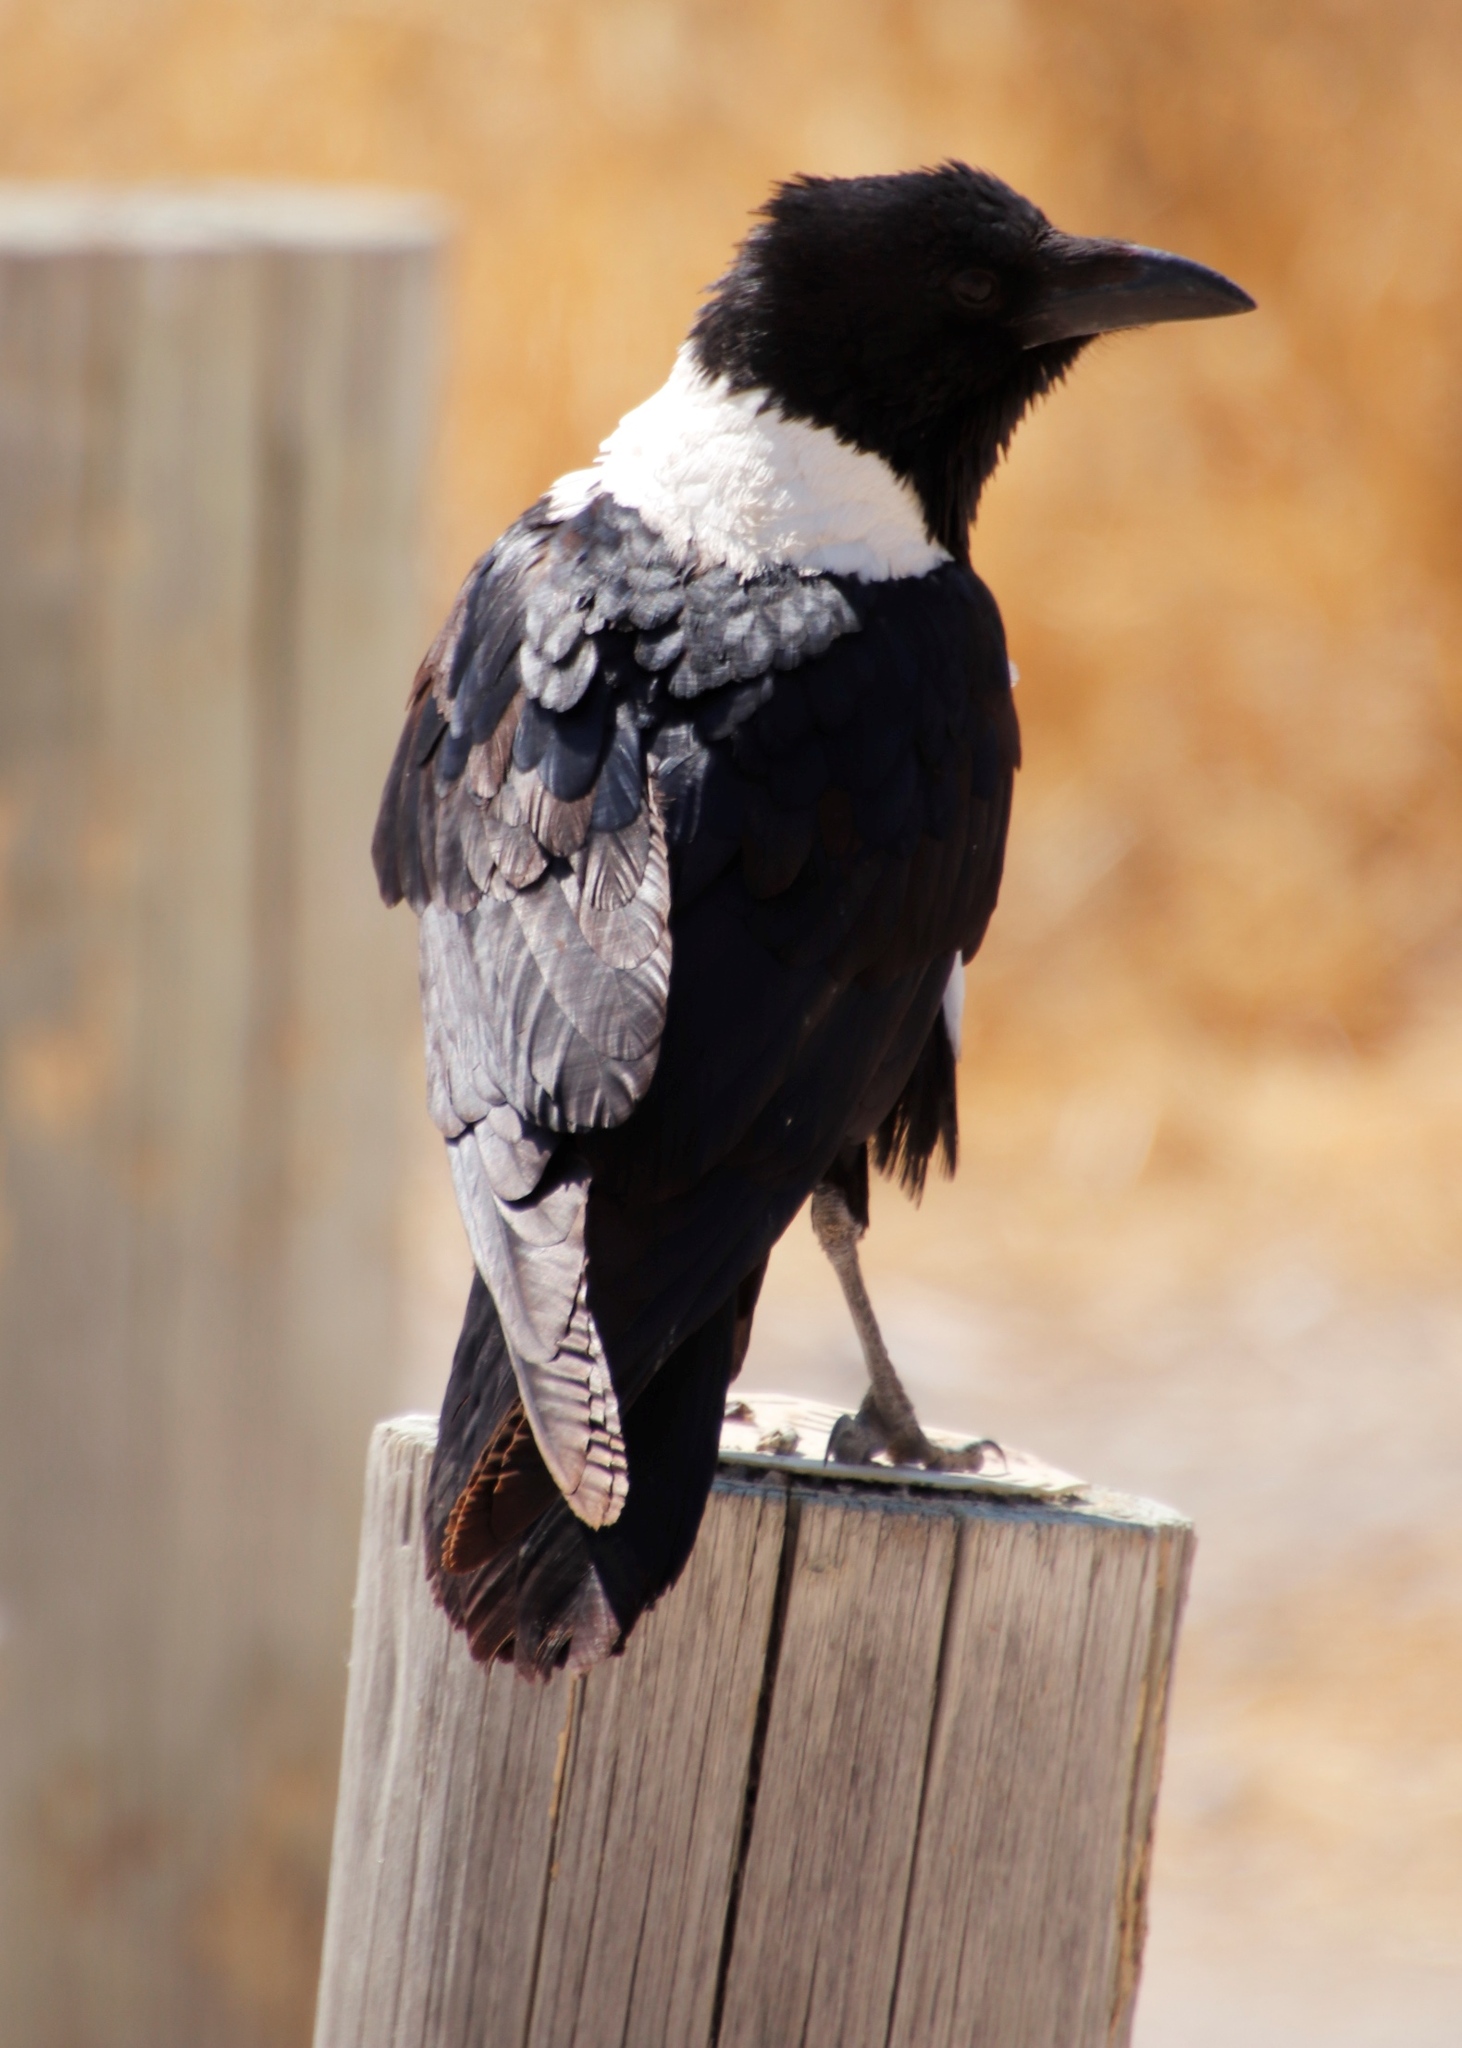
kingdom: Animalia
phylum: Chordata
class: Aves
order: Passeriformes
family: Corvidae
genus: Corvus
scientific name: Corvus albus
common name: Pied crow
